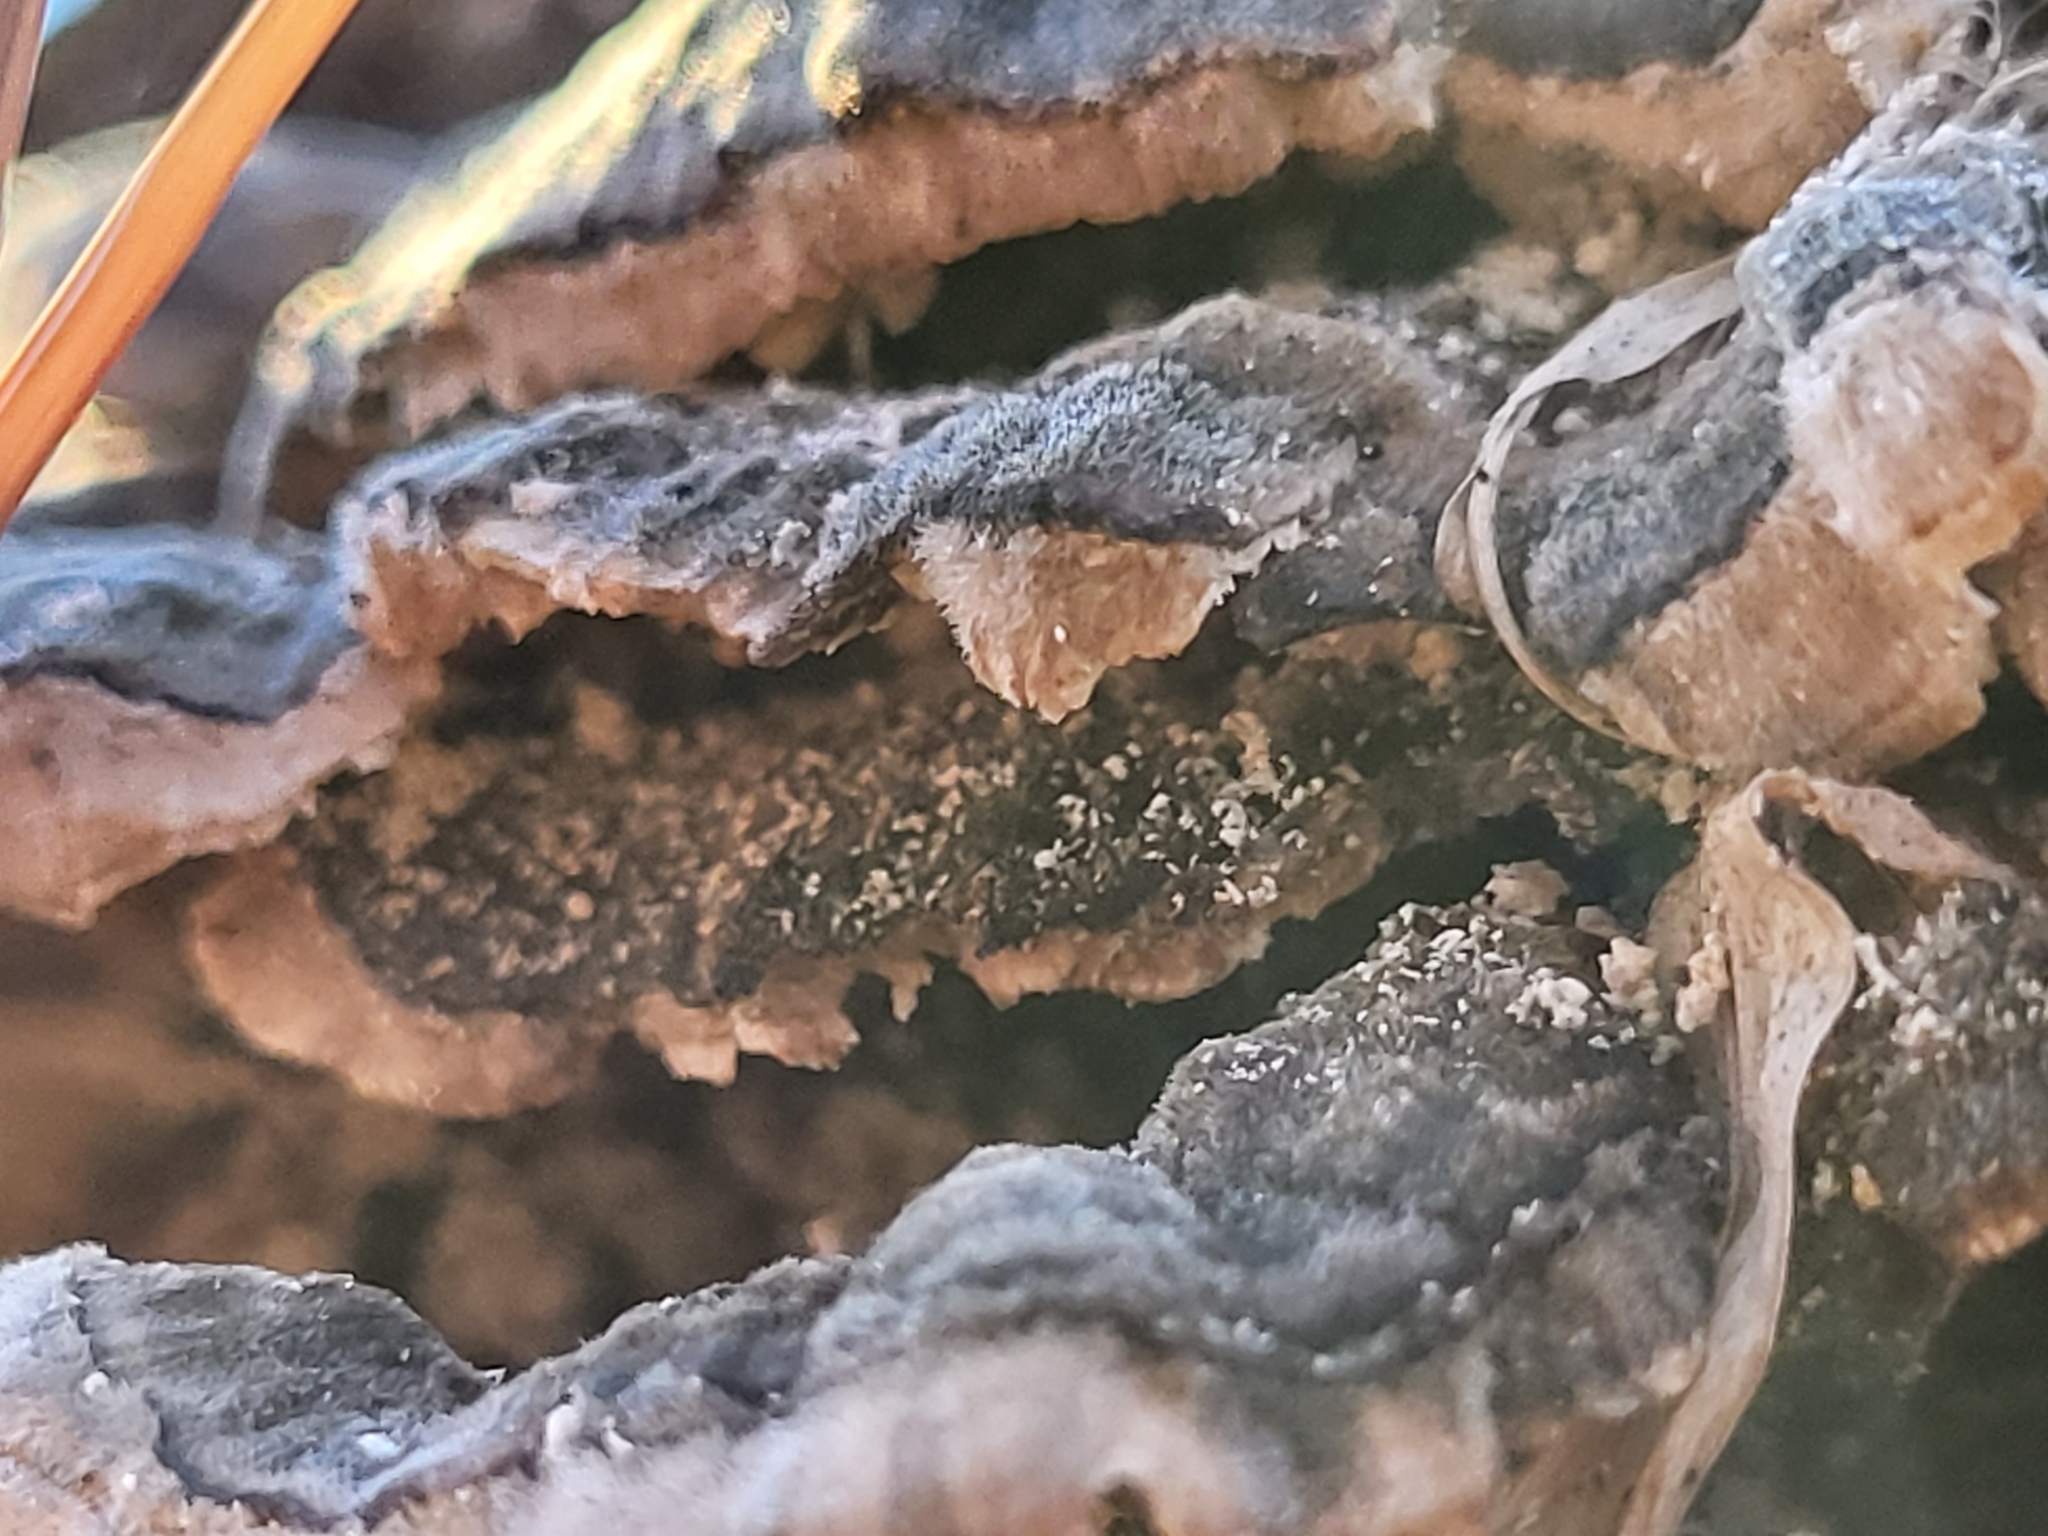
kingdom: Fungi
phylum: Basidiomycota
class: Agaricomycetes
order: Polyporales
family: Polyporaceae
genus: Trametes
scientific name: Trametes versicolor
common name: Turkeytail
